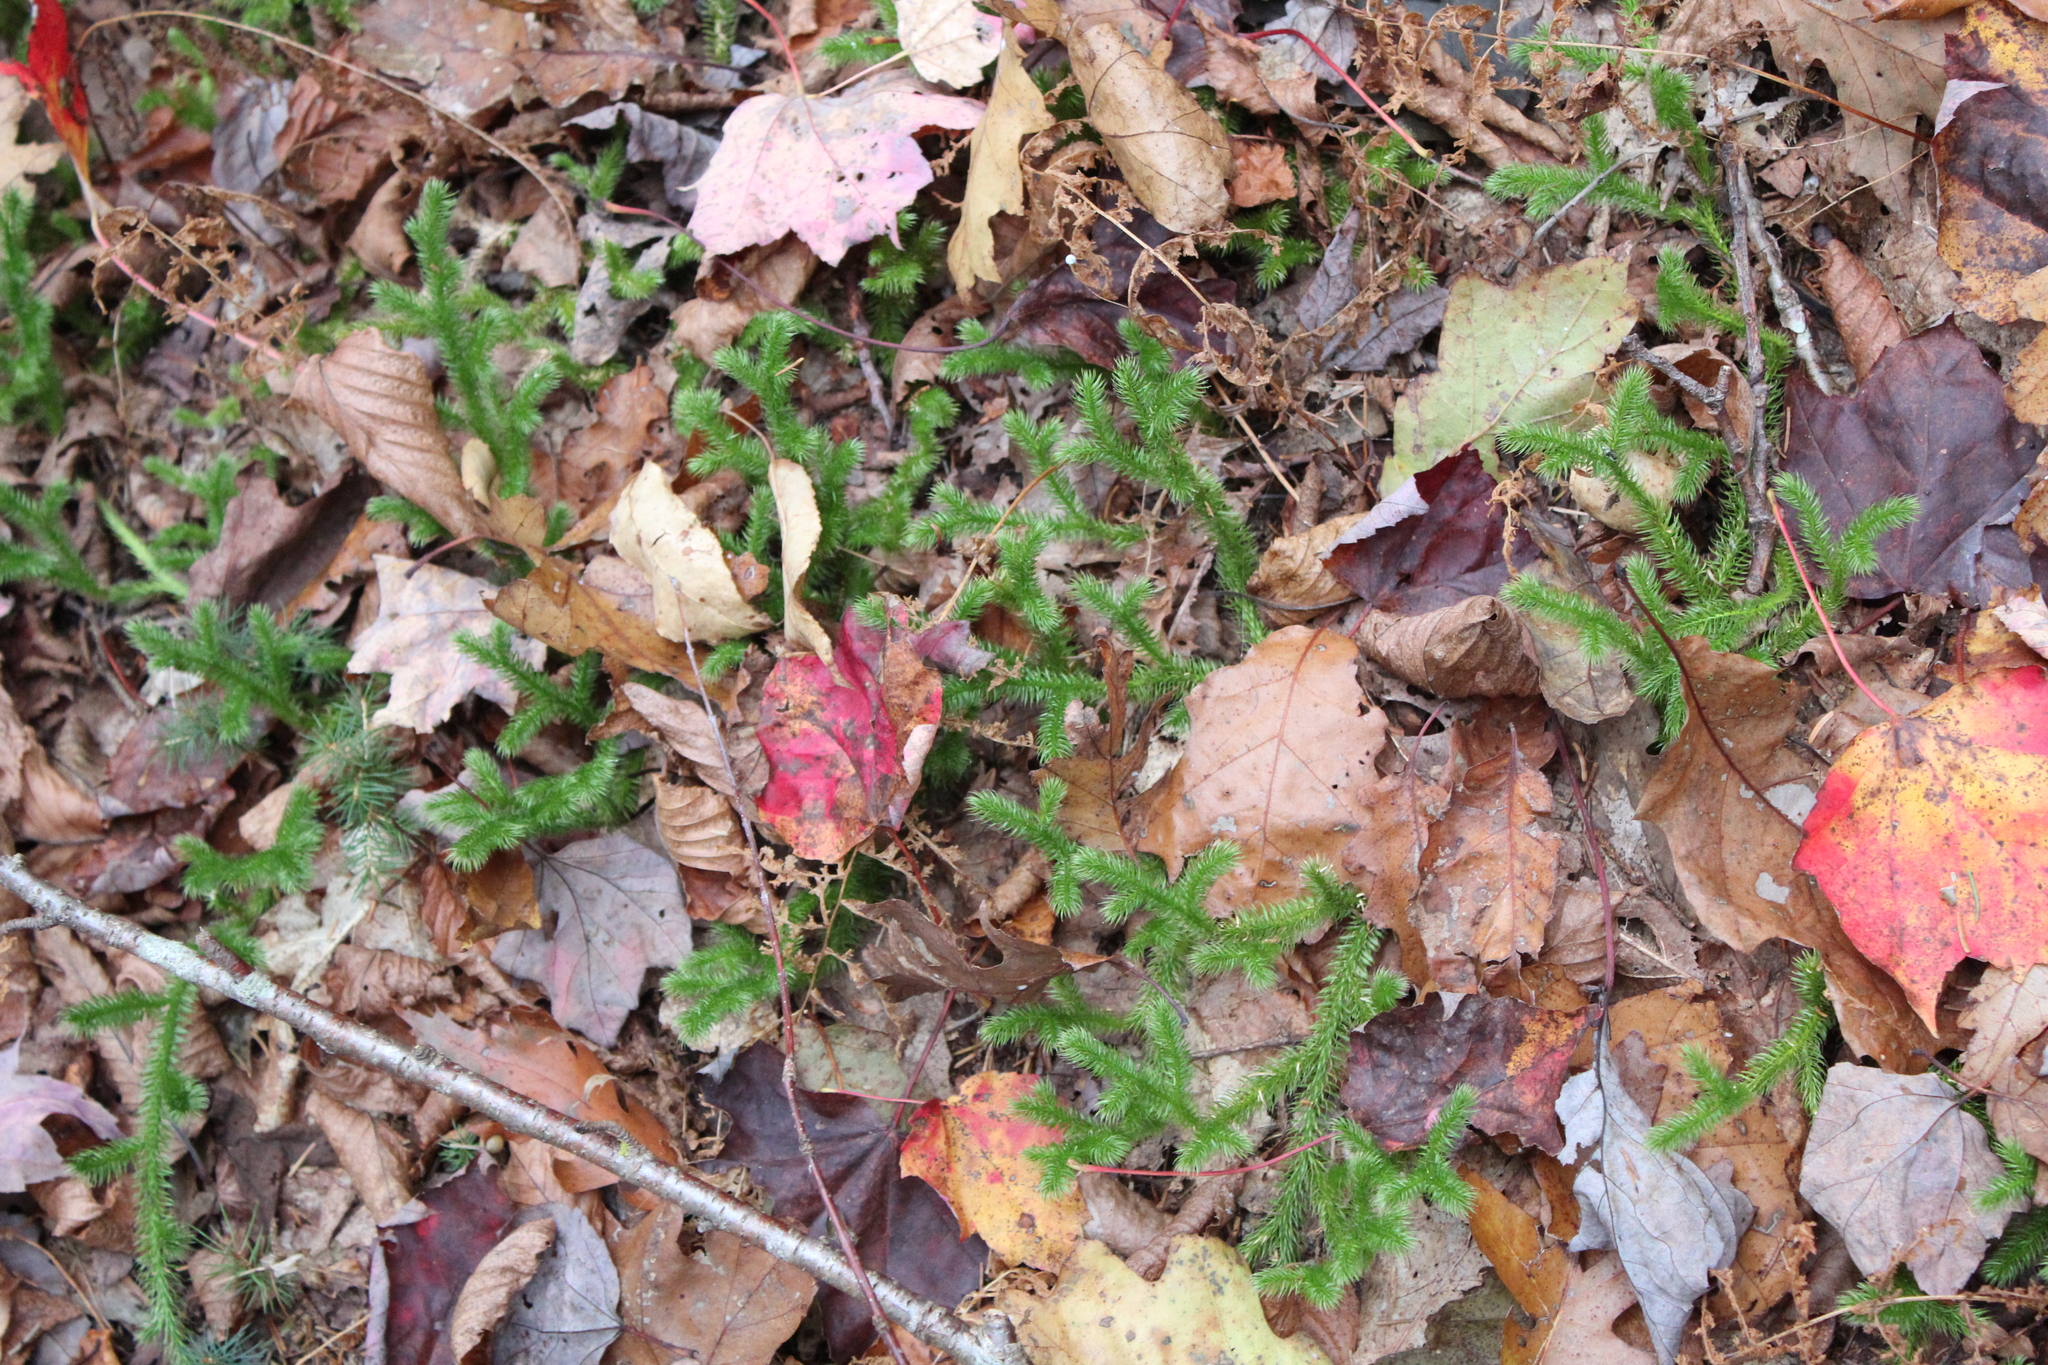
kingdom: Plantae
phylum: Tracheophyta
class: Lycopodiopsida
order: Lycopodiales
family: Lycopodiaceae
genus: Lycopodium
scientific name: Lycopodium clavatum
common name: Stag's-horn clubmoss
